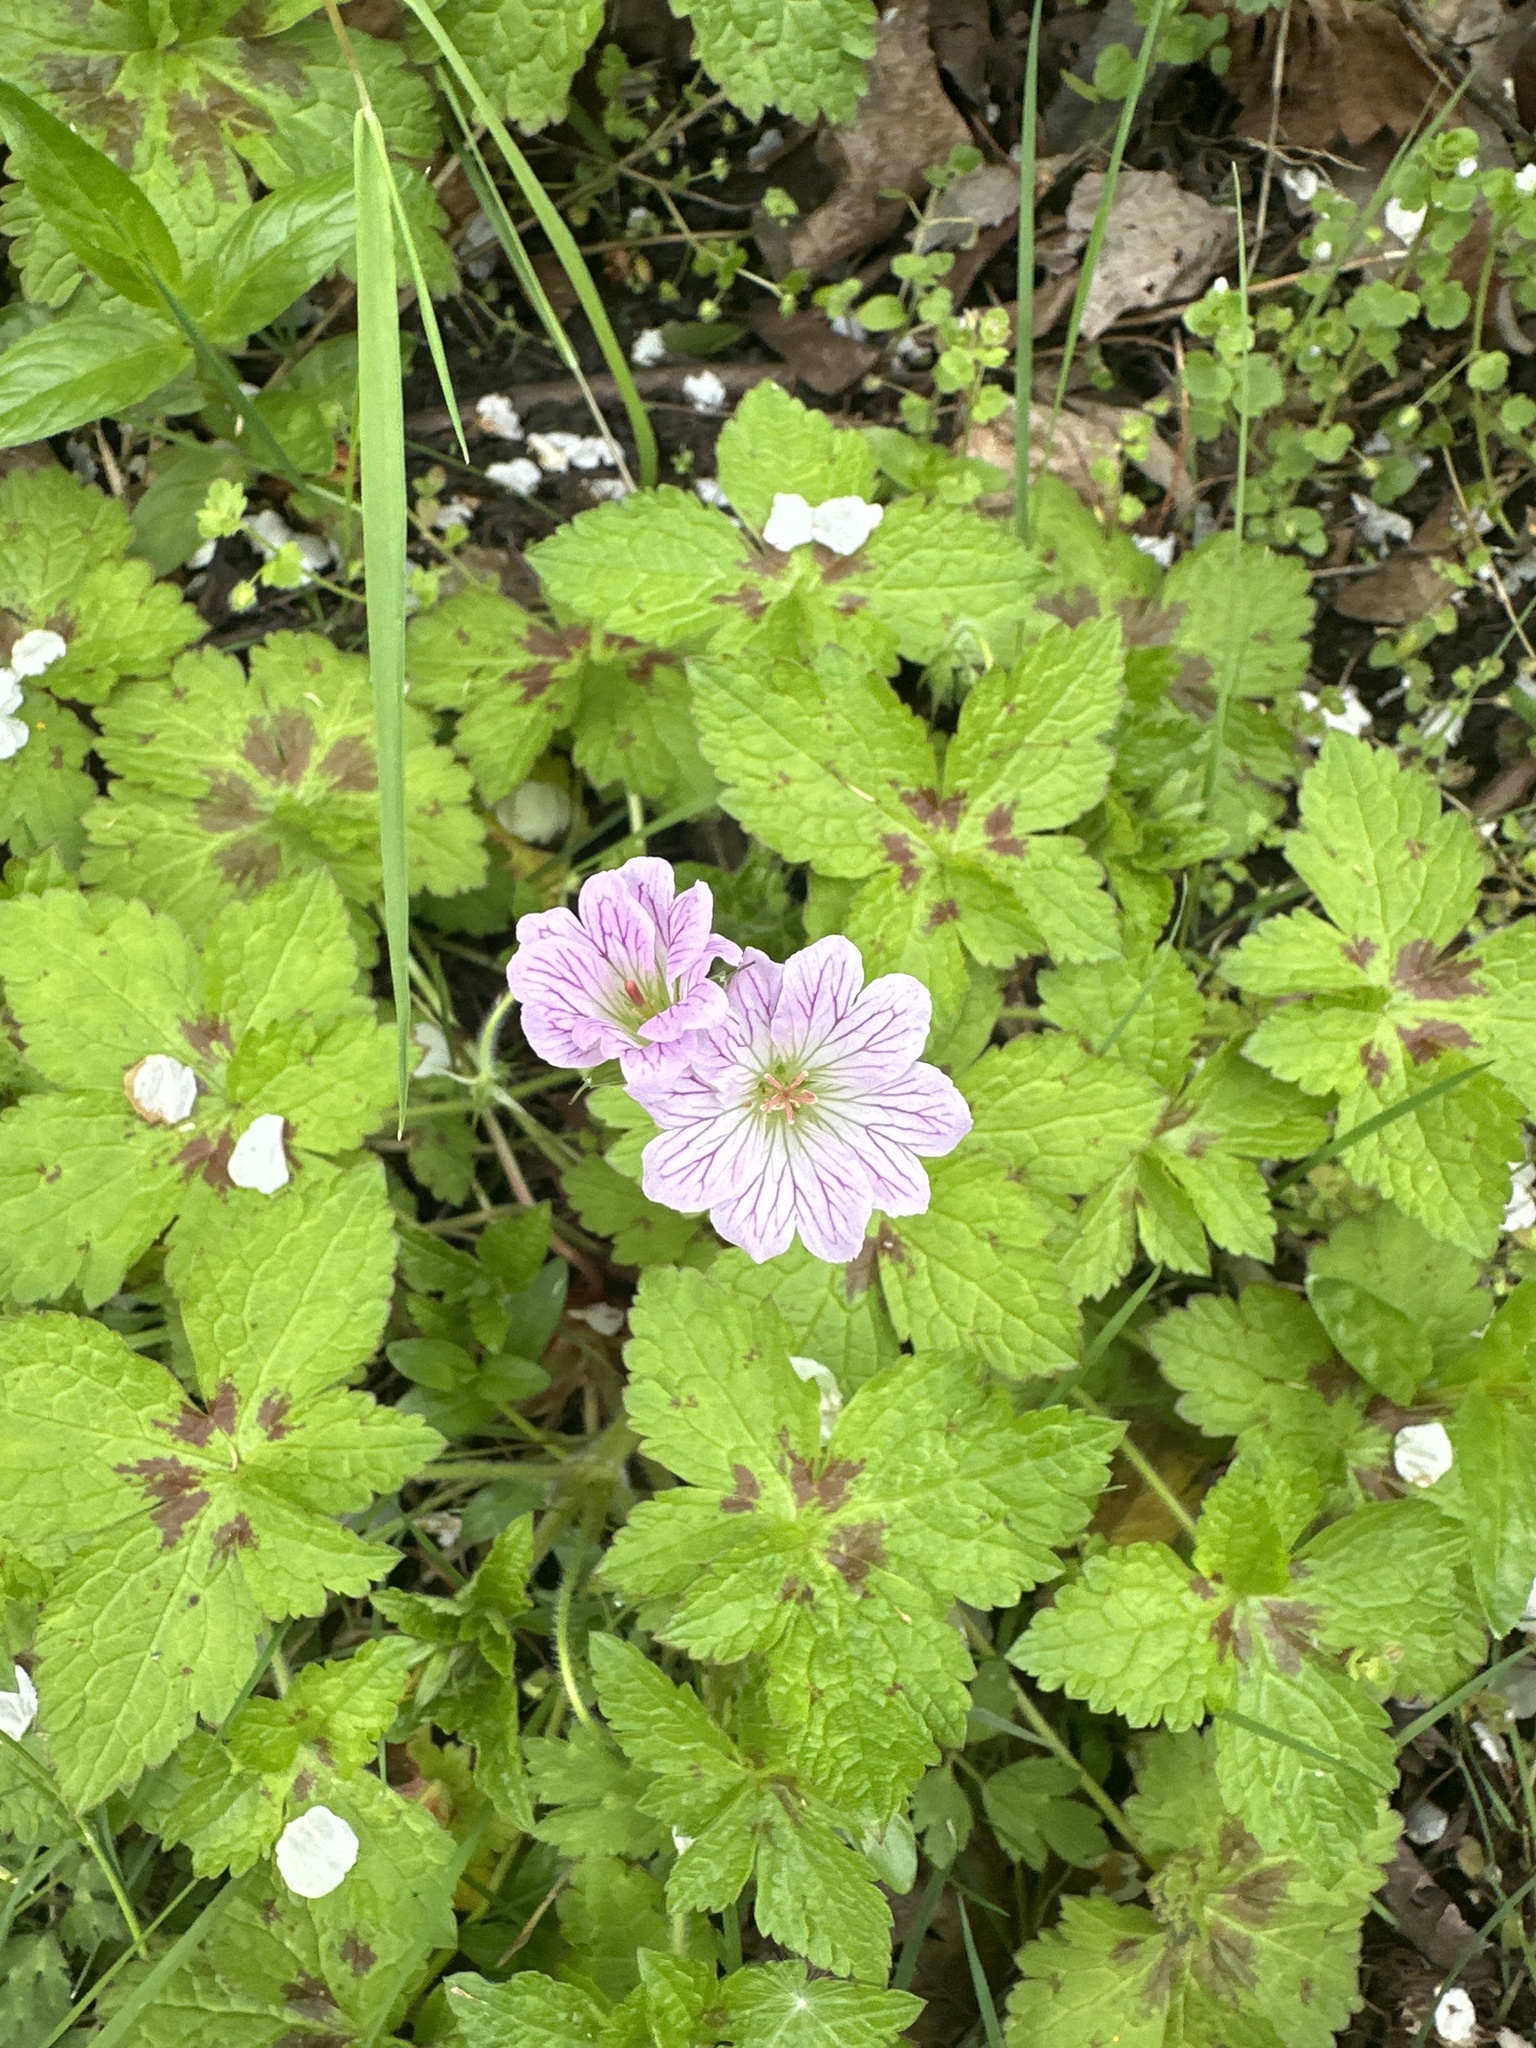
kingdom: Plantae
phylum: Tracheophyta
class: Magnoliopsida
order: Geraniales
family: Geraniaceae
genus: Geranium
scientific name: Geranium versicolor
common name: Pencilled crane's-bill
